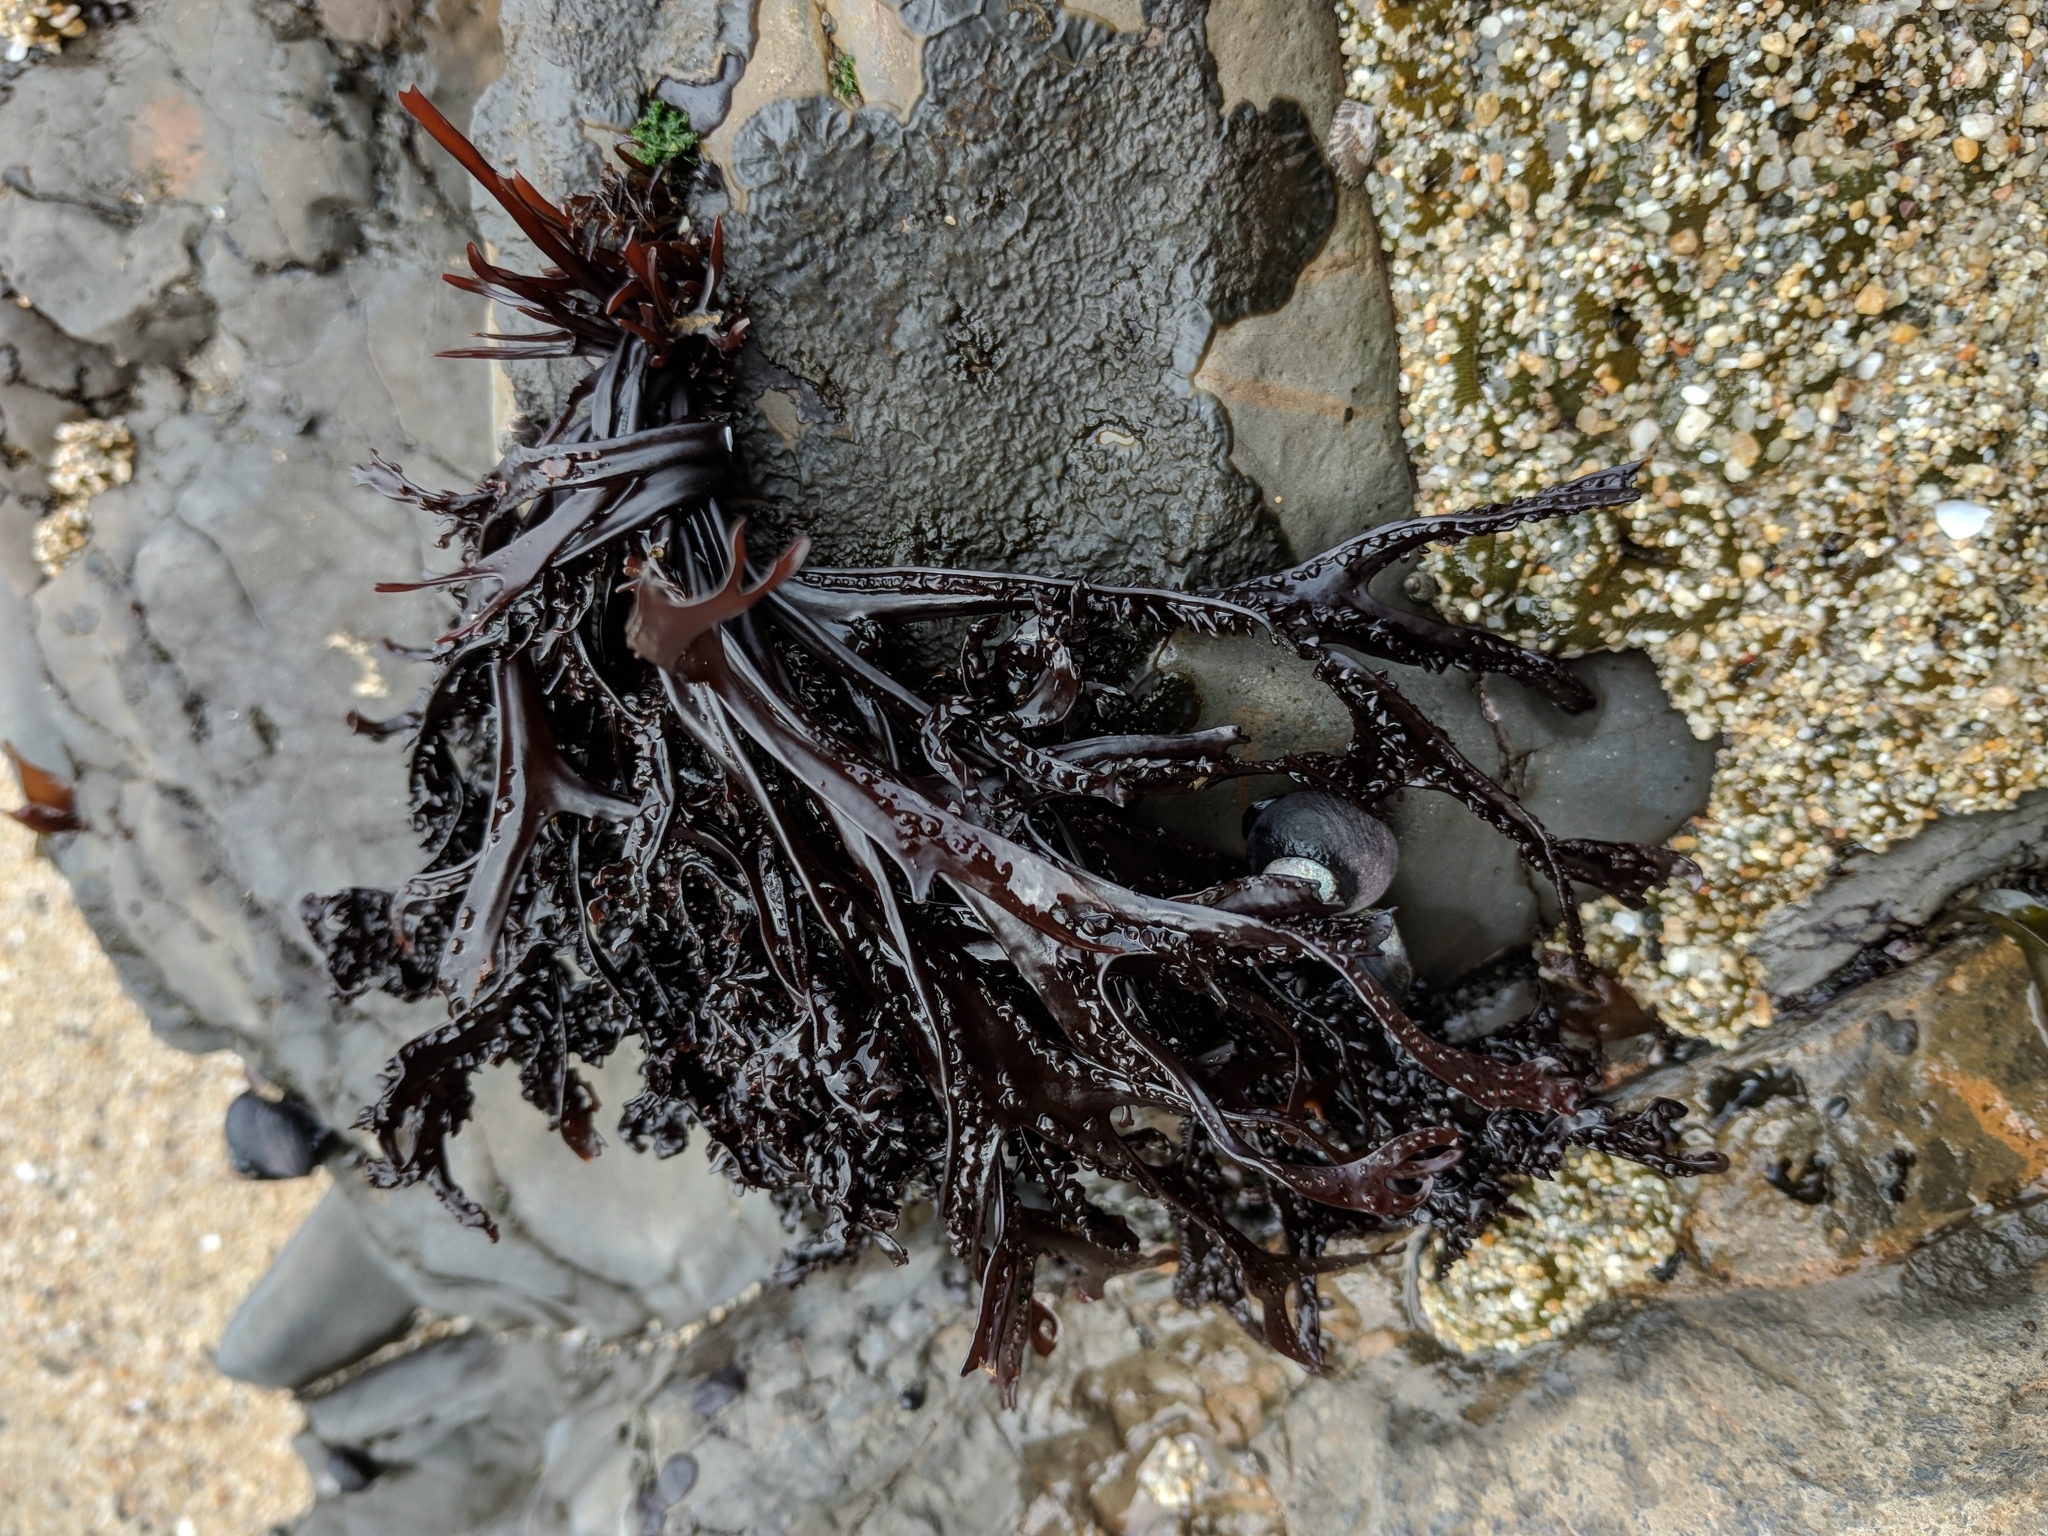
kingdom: Plantae
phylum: Rhodophyta
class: Florideophyceae
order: Gigartinales
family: Phyllophoraceae
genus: Mastocarpus
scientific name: Mastocarpus jardinii
